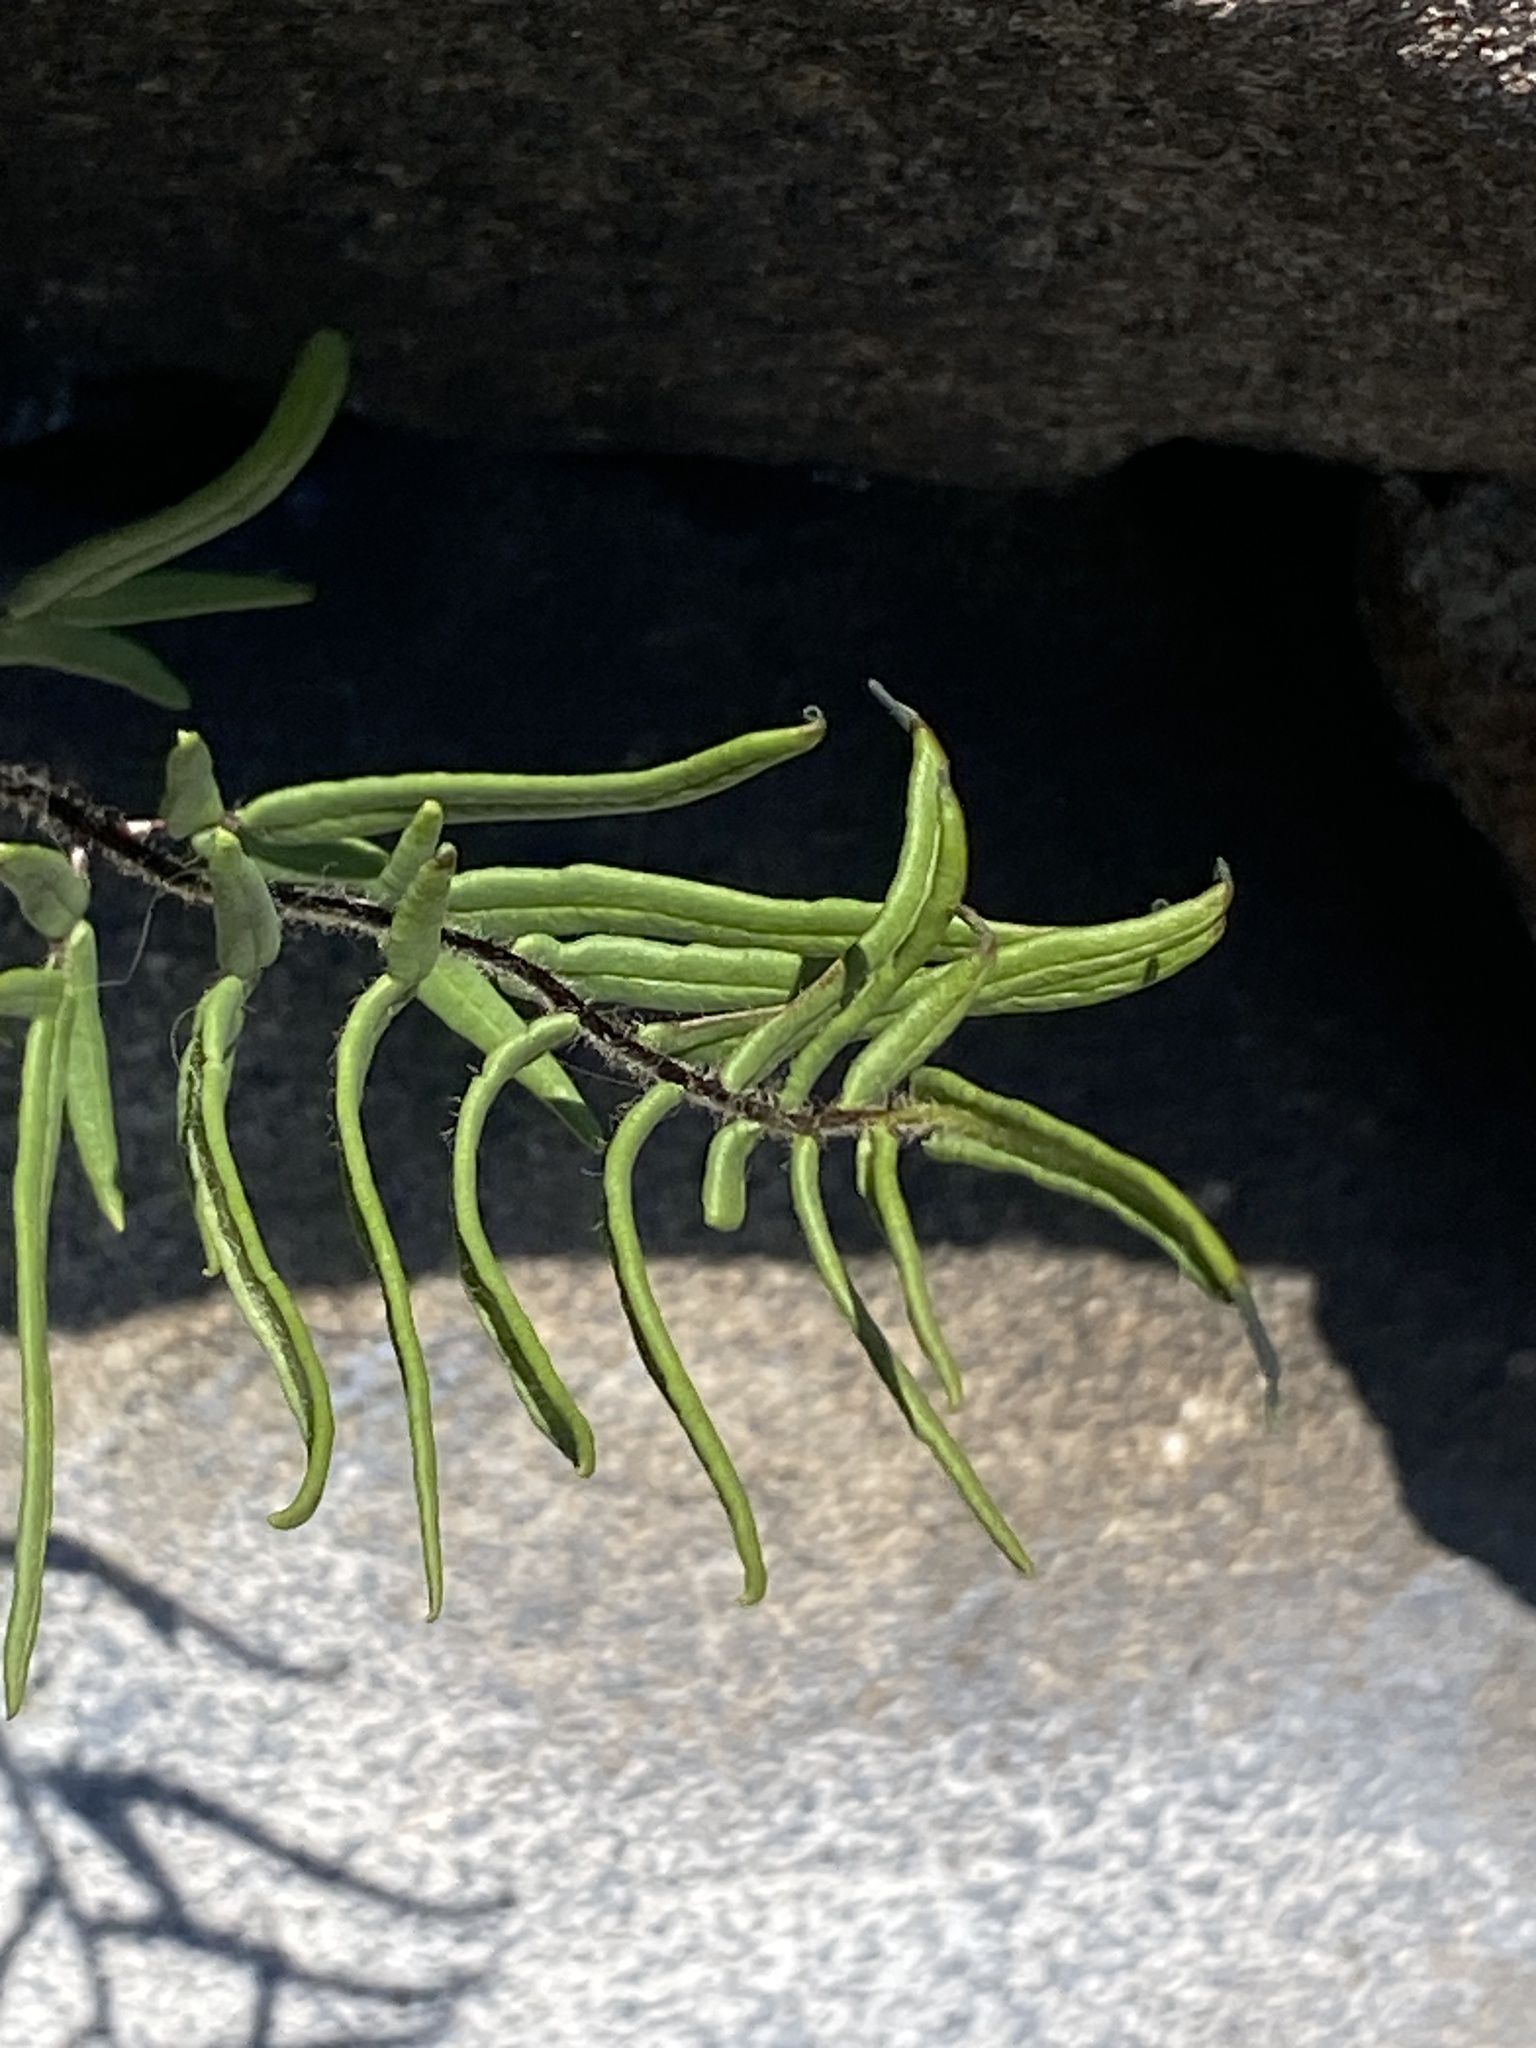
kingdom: Plantae
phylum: Tracheophyta
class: Polypodiopsida
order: Polypodiales
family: Pteridaceae
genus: Pellaea
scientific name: Pellaea atropurpurea
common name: Hairy cliffbrake
